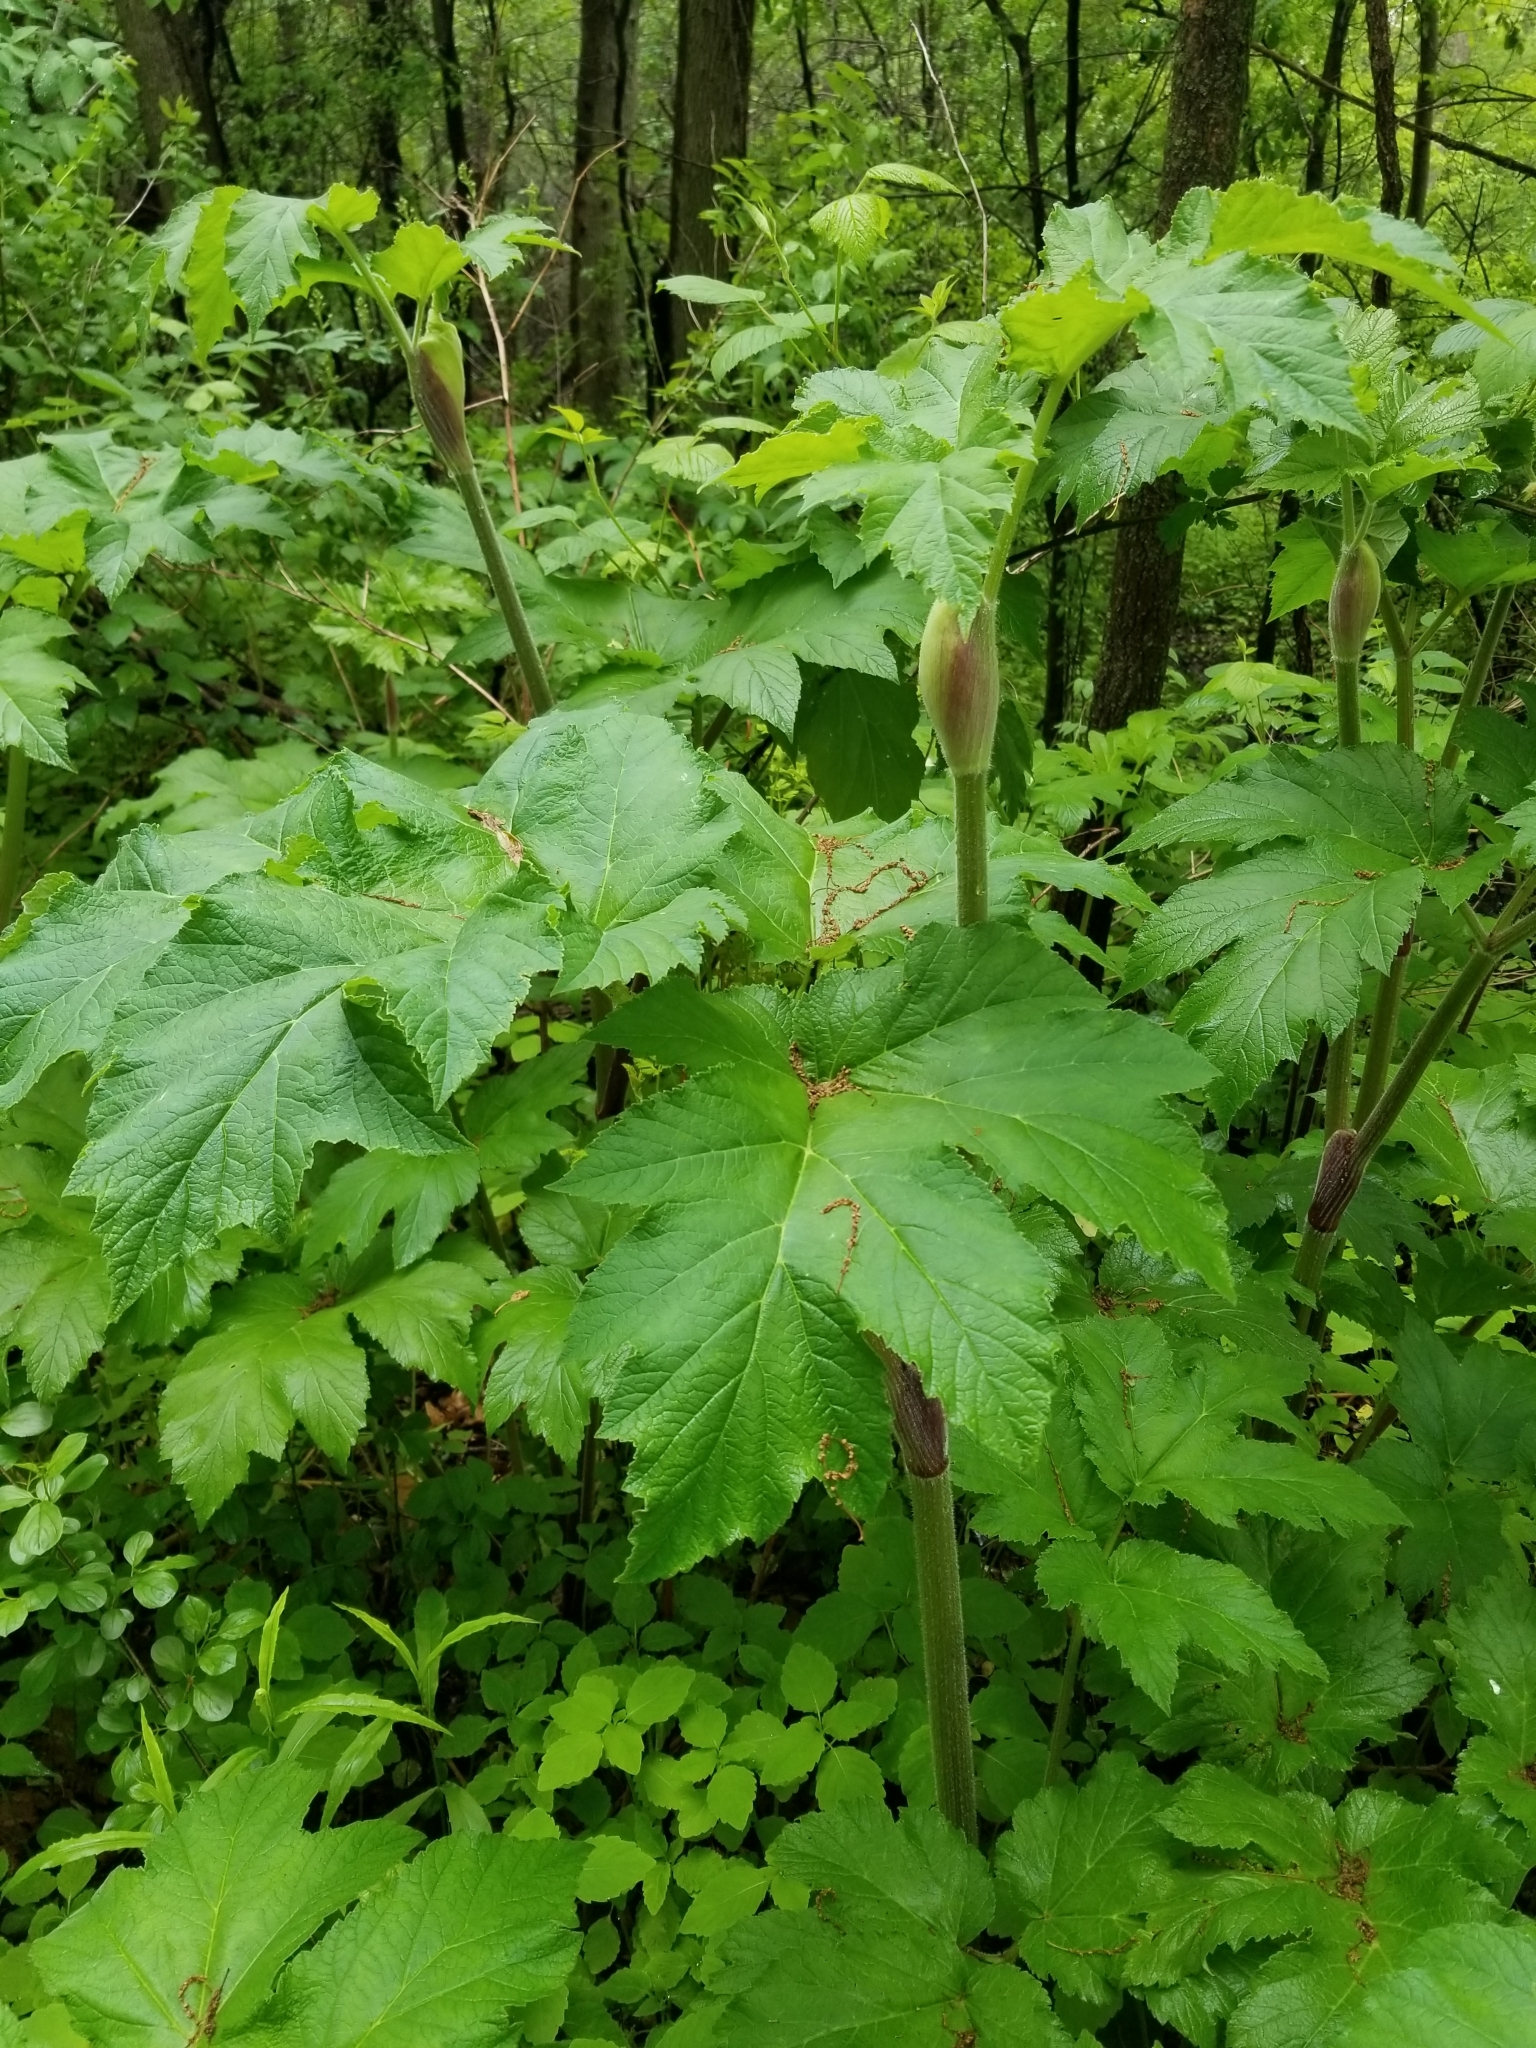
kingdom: Plantae
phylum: Tracheophyta
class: Magnoliopsida
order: Apiales
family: Apiaceae
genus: Heracleum
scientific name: Heracleum maximum
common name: American cow parsnip
